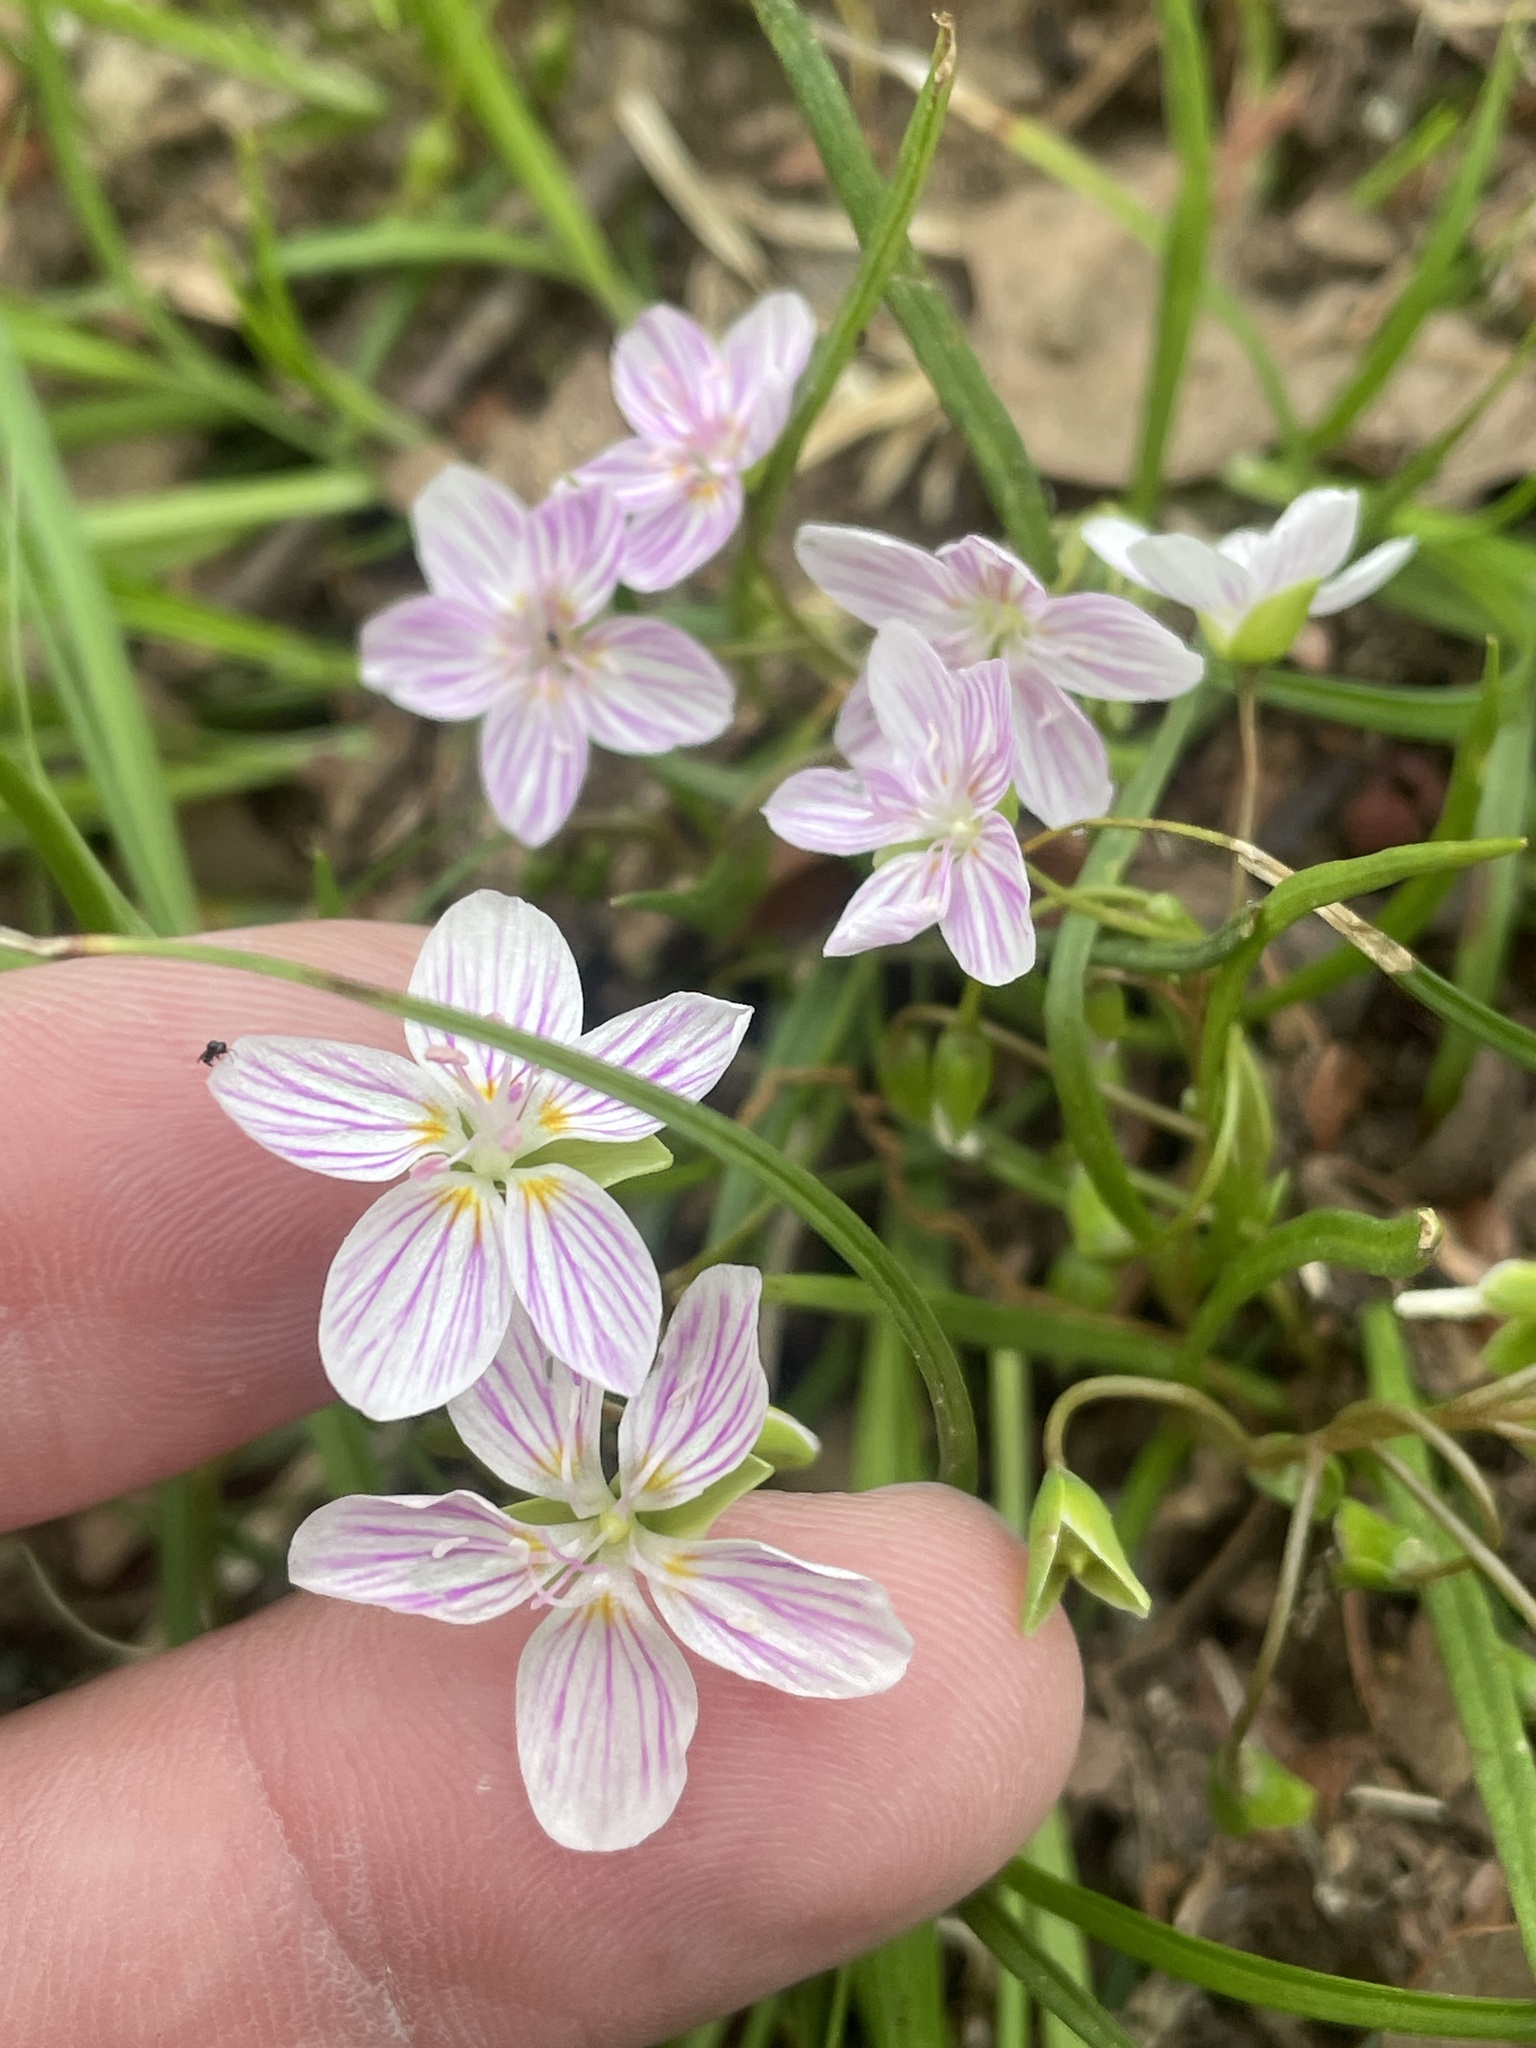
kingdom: Plantae
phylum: Tracheophyta
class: Magnoliopsida
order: Caryophyllales
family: Montiaceae
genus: Claytonia
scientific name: Claytonia virginica
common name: Virginia springbeauty
